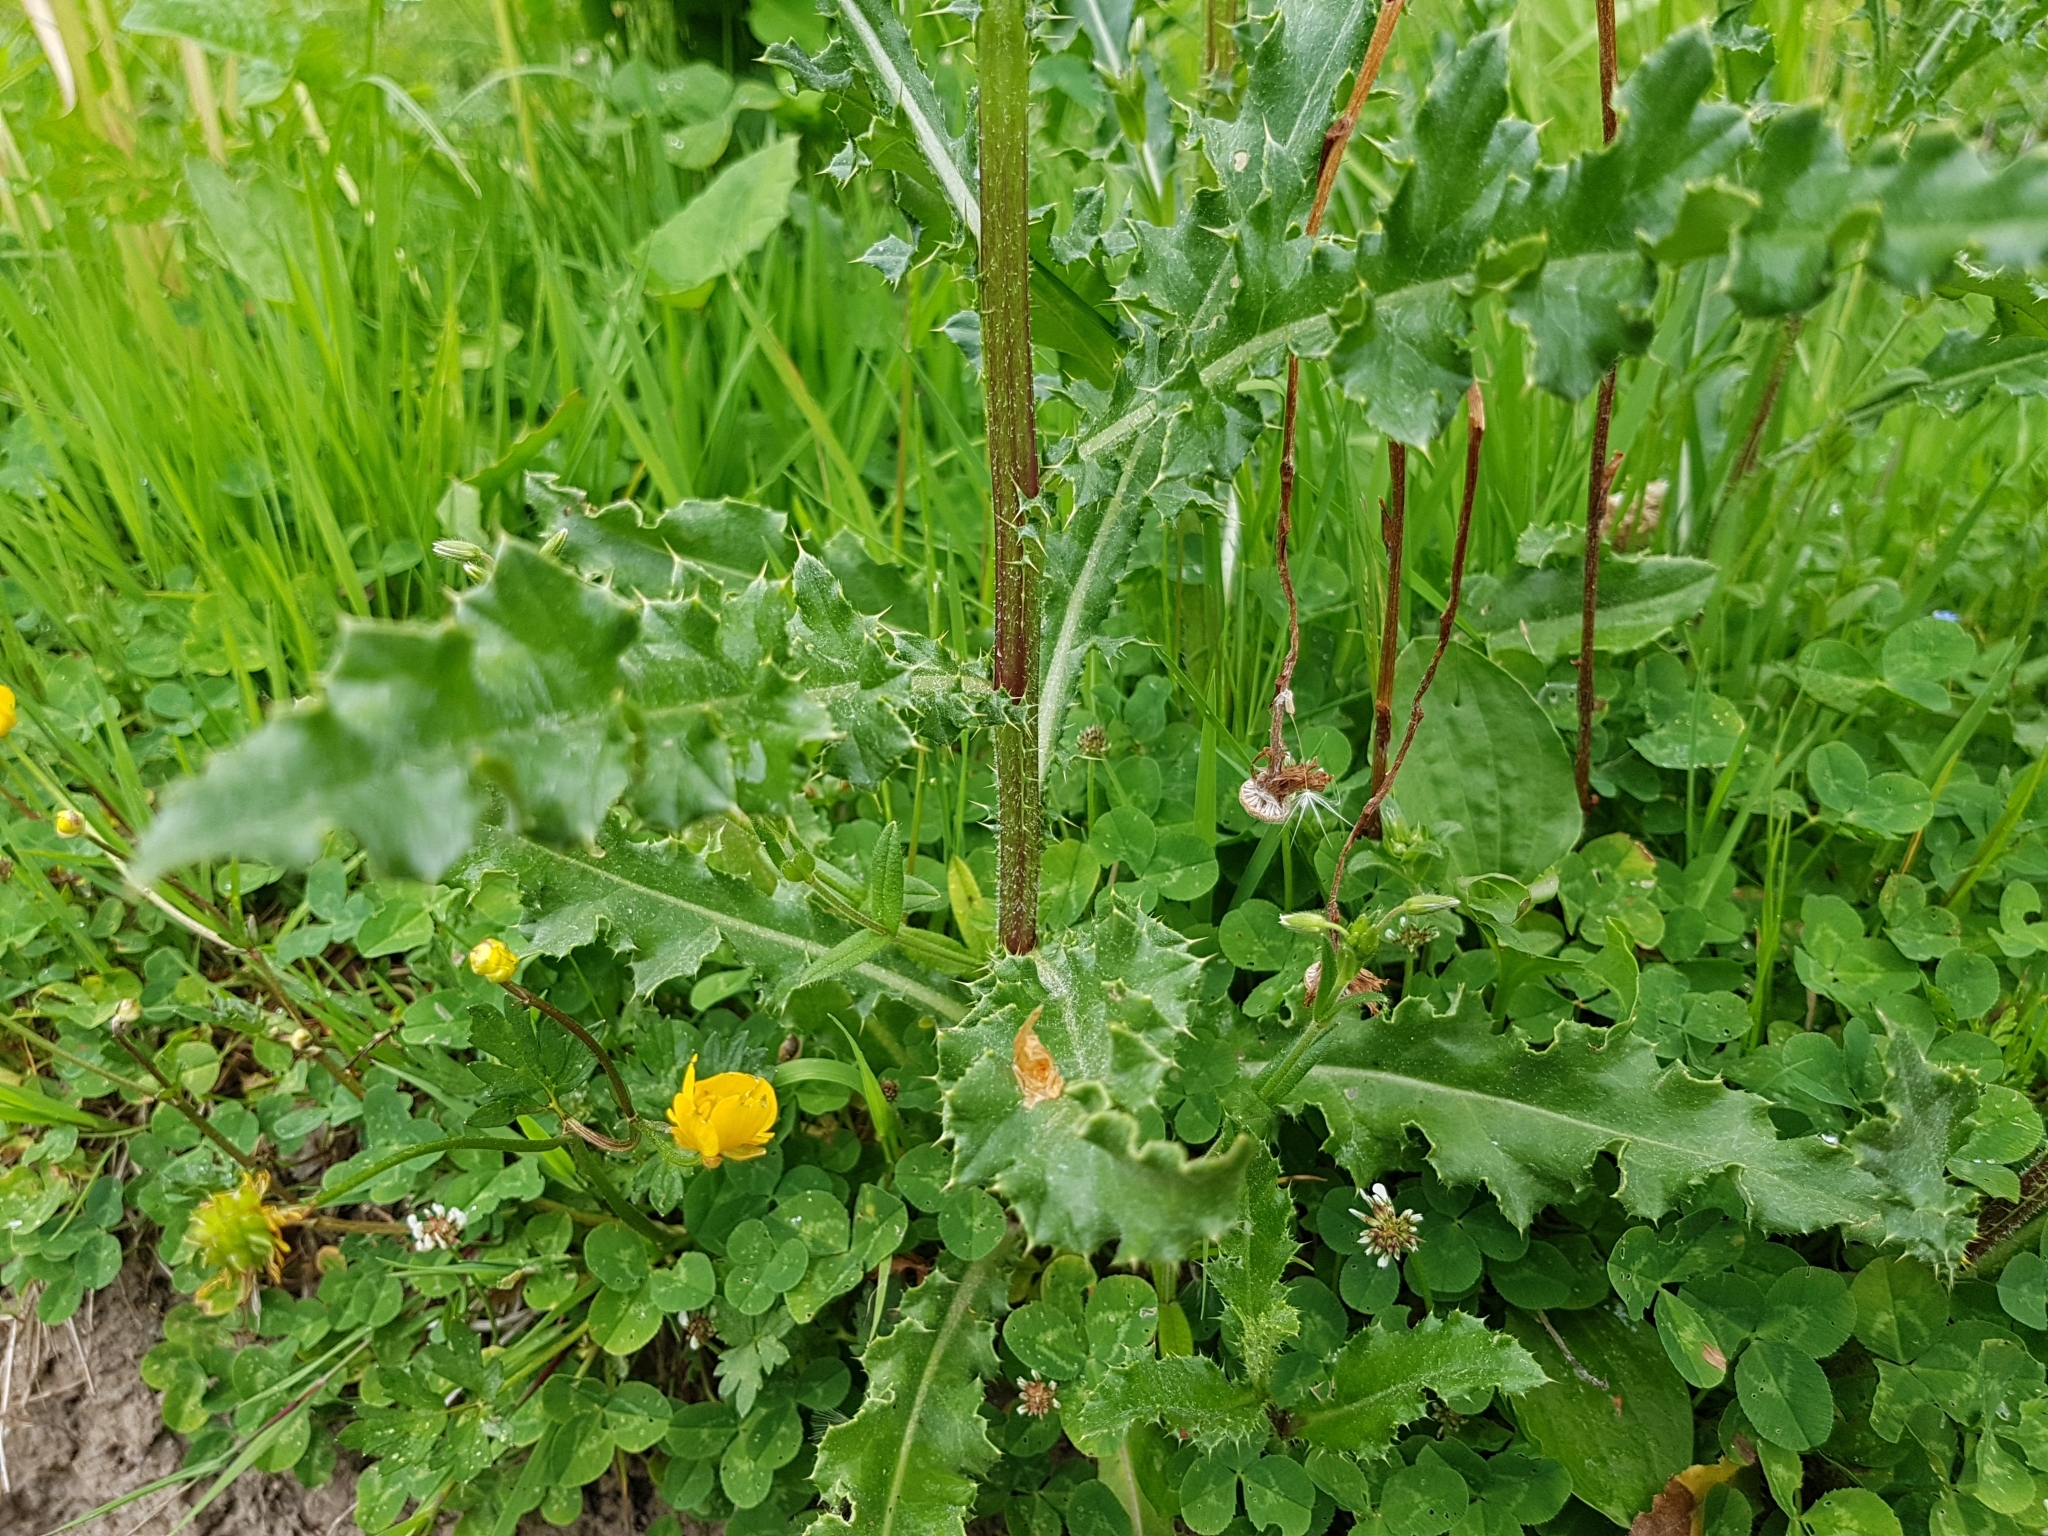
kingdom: Plantae
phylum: Tracheophyta
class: Magnoliopsida
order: Asterales
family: Asteraceae
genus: Cirsium
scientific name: Cirsium arvense
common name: Creeping thistle
